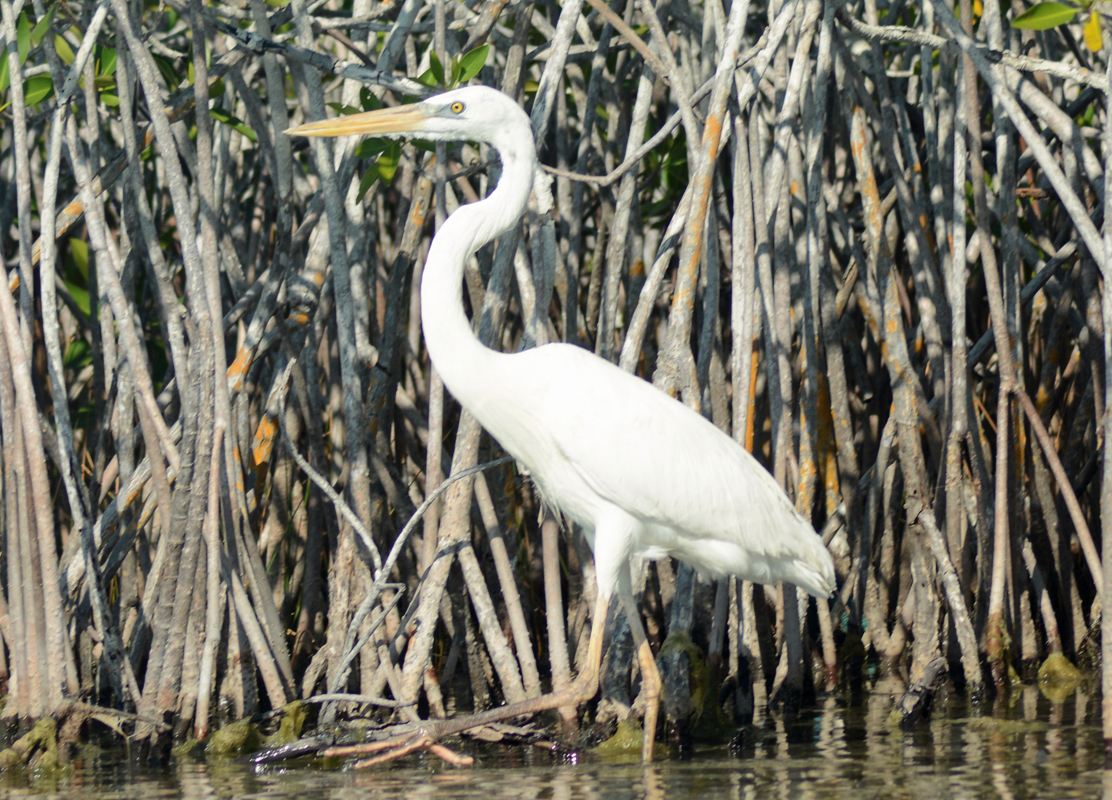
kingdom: Animalia
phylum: Chordata
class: Aves
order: Pelecaniformes
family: Ardeidae
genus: Ardea
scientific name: Ardea herodias
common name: Great blue heron
